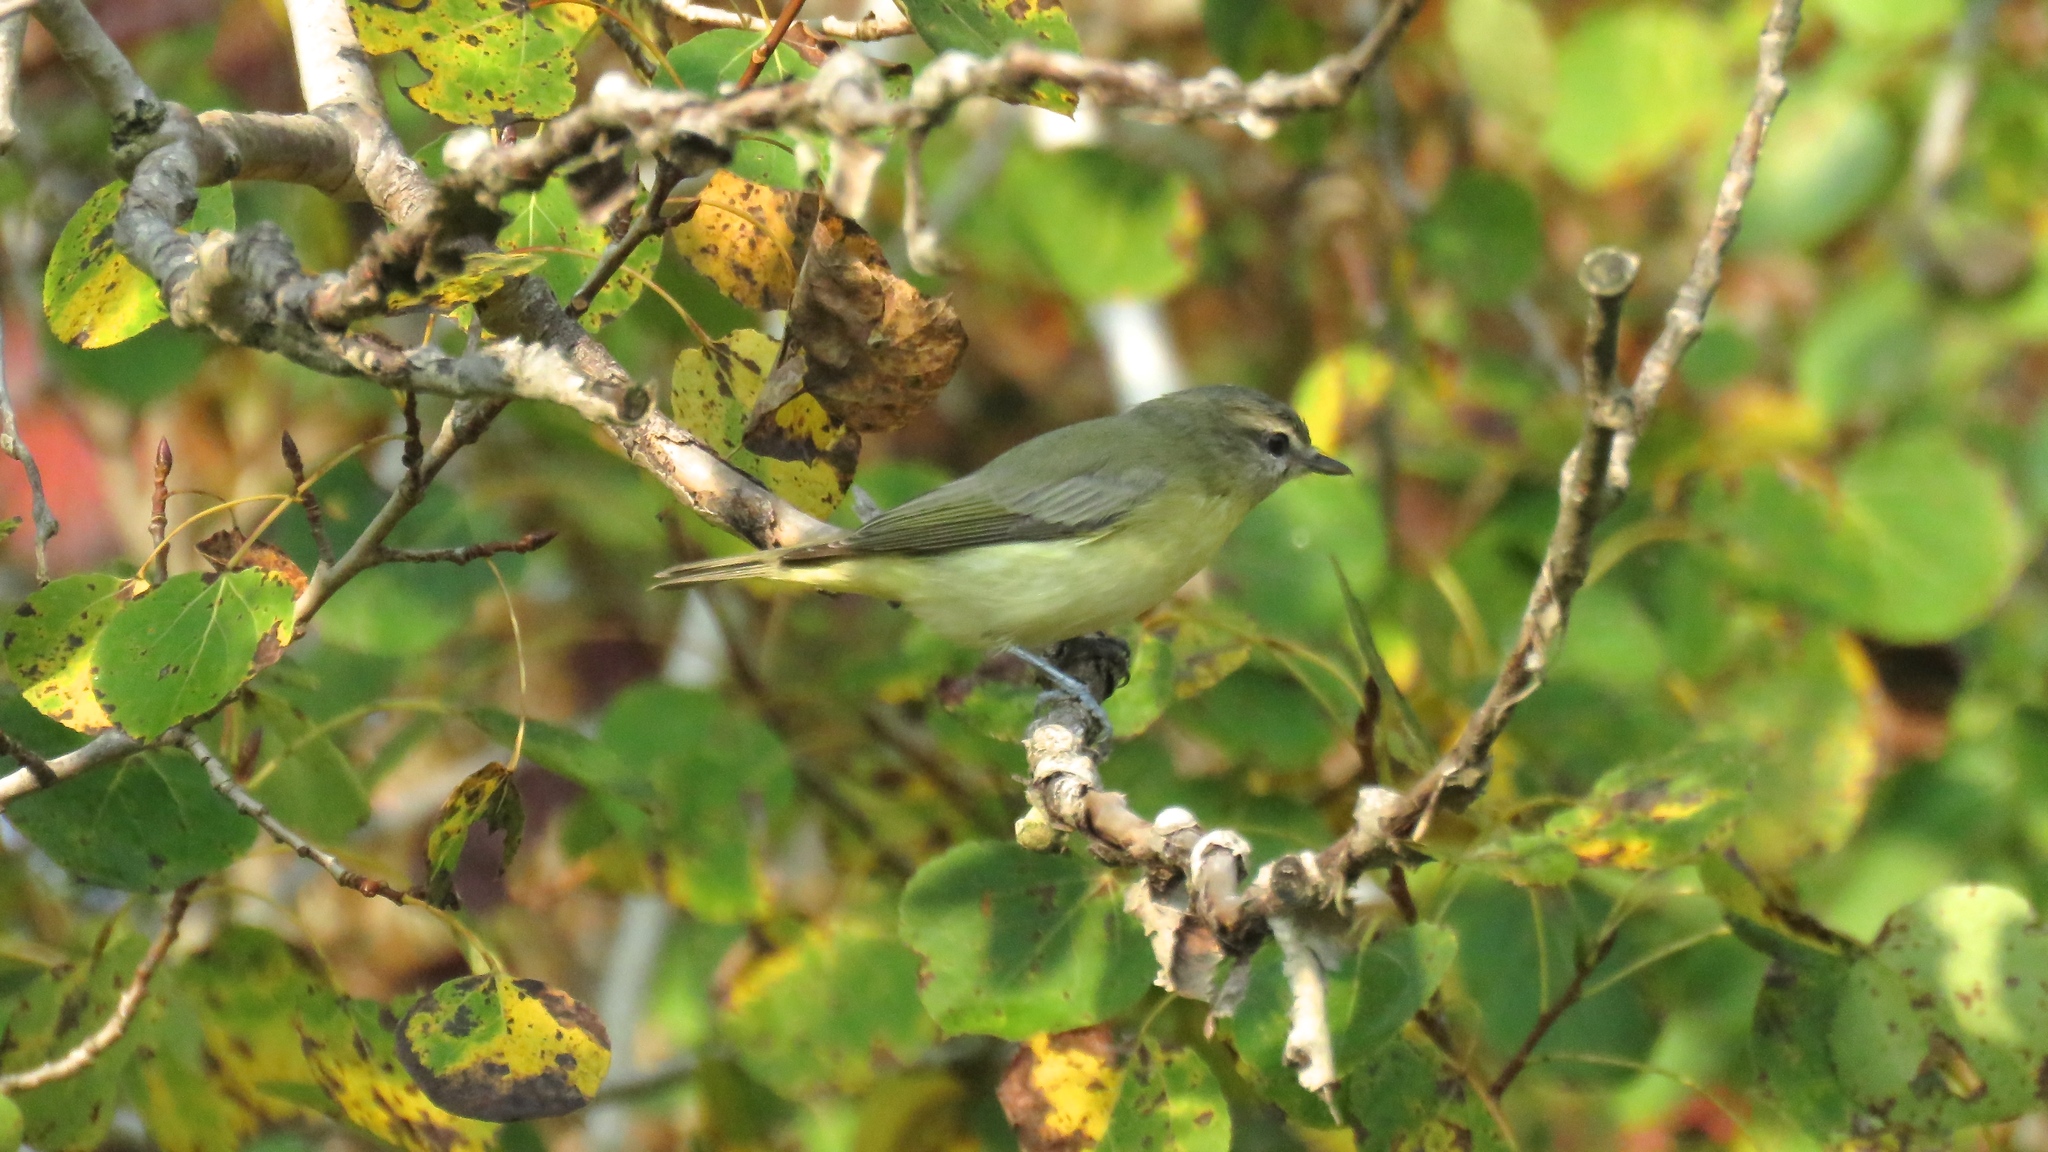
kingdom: Animalia
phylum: Chordata
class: Aves
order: Passeriformes
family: Vireonidae
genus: Vireo
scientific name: Vireo philadelphicus
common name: Philadelphia vireo
